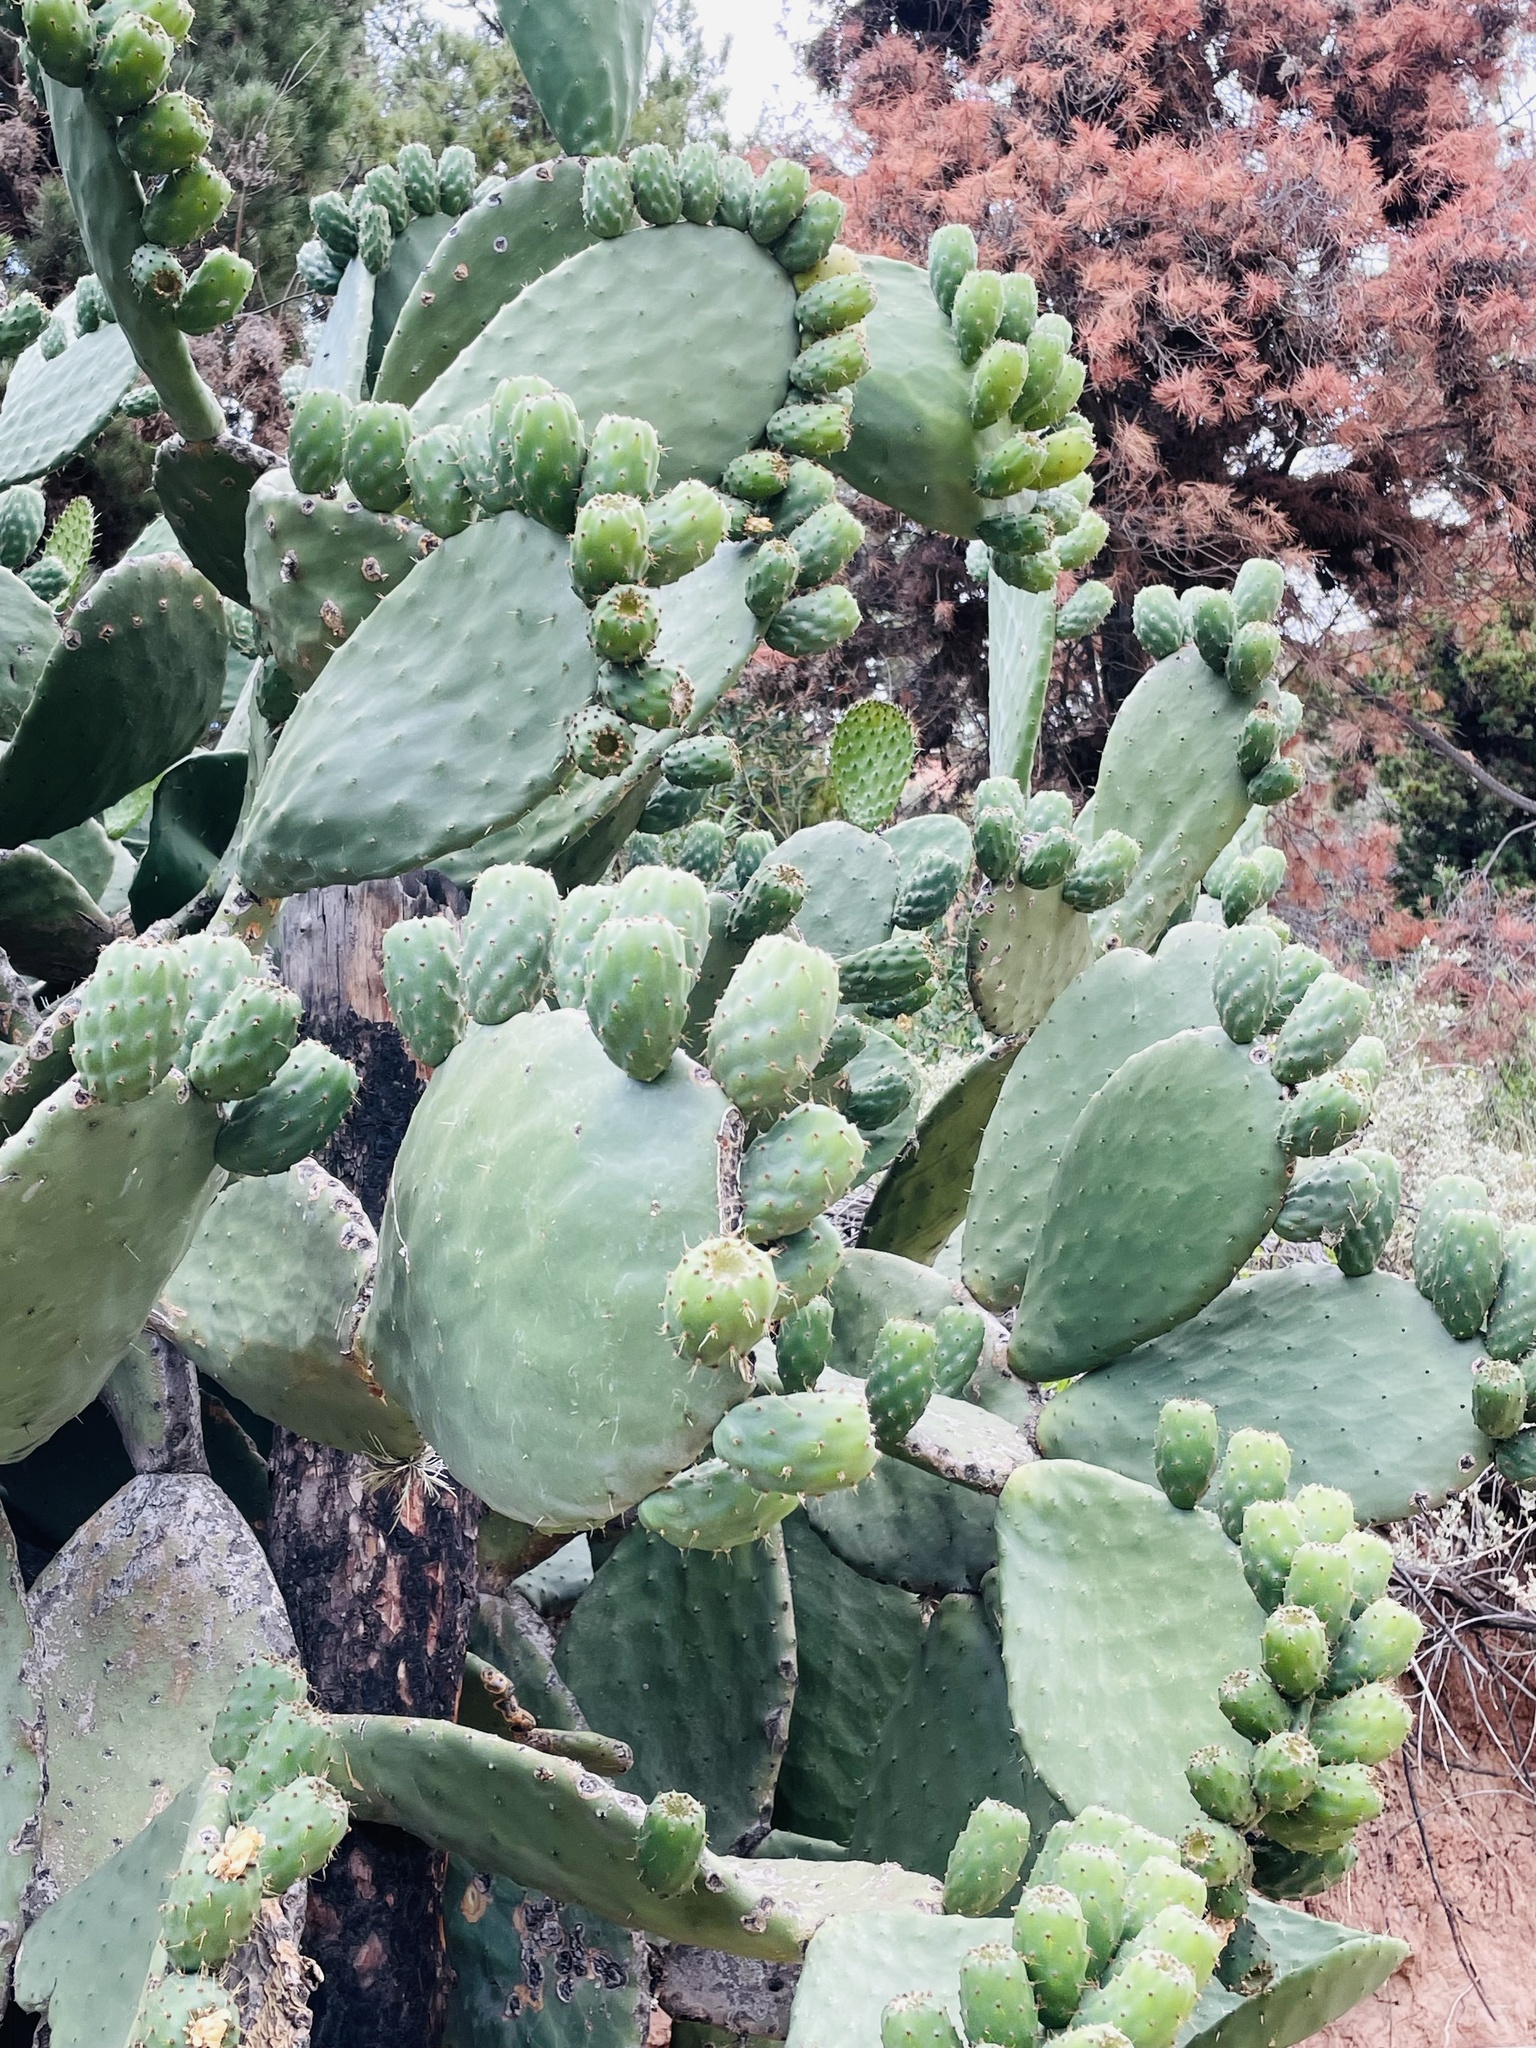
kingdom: Plantae
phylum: Tracheophyta
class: Magnoliopsida
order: Caryophyllales
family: Cactaceae
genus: Opuntia
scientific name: Opuntia ficus-indica
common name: Barbary fig
